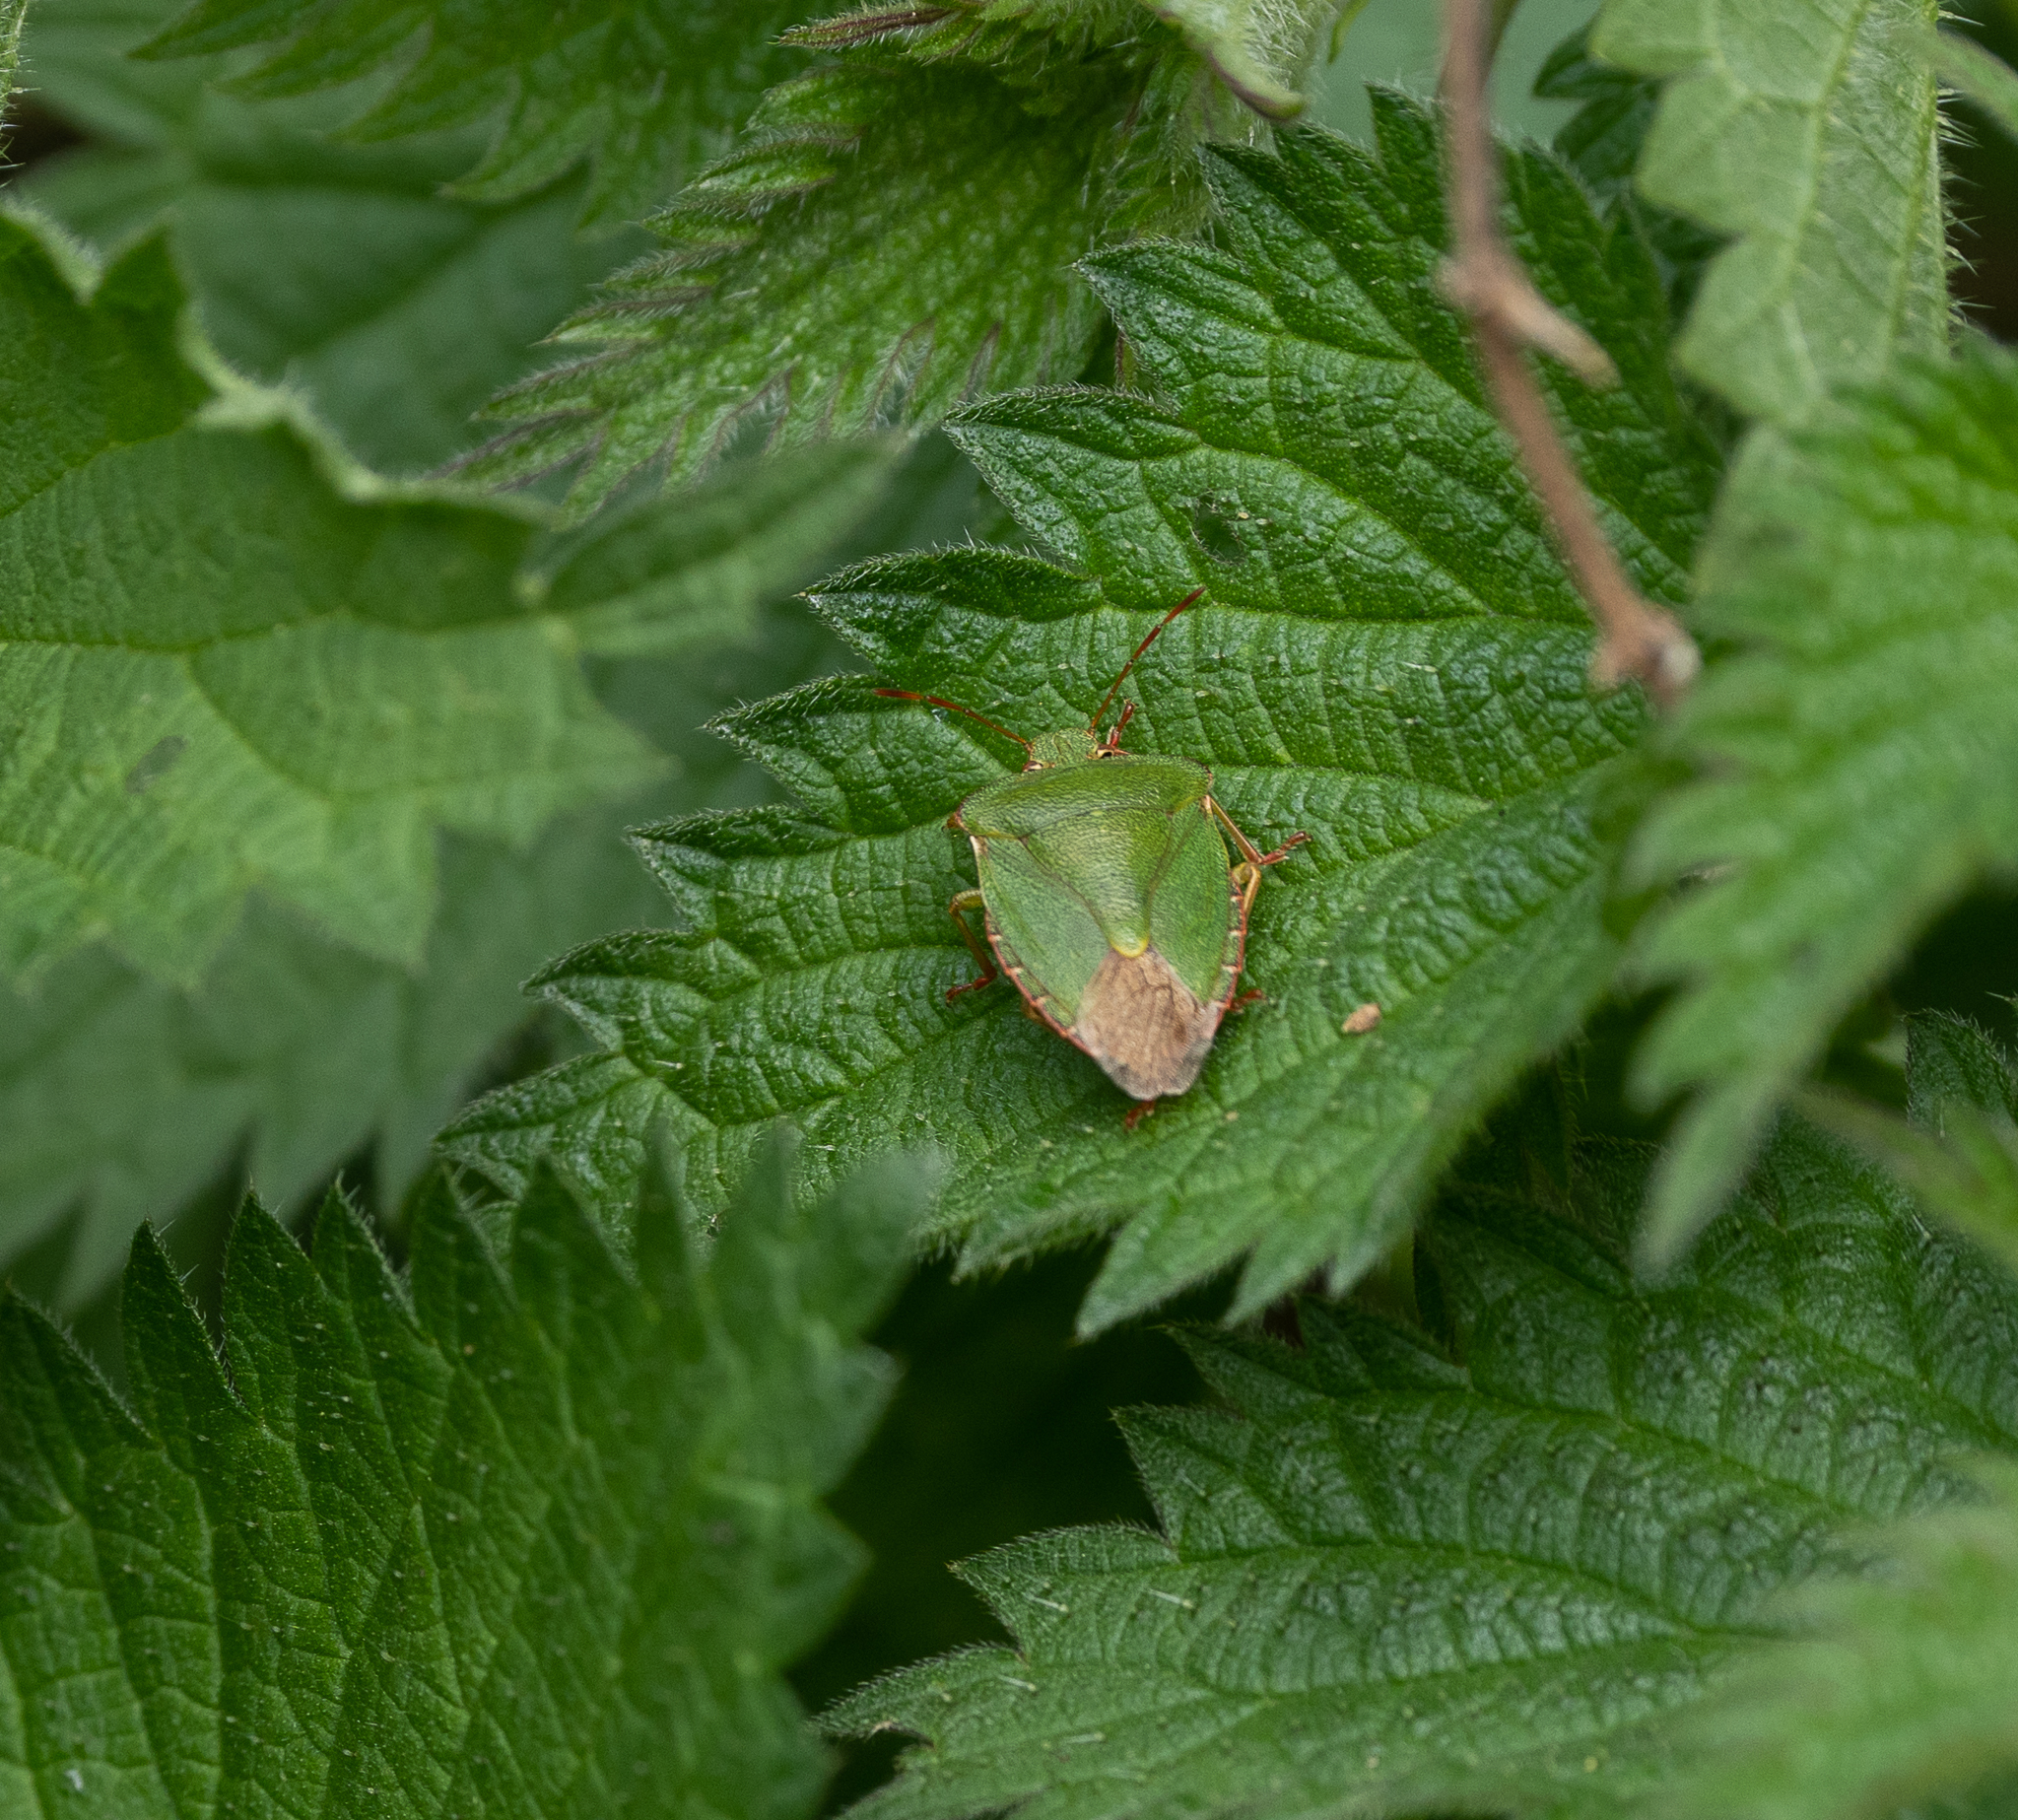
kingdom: Animalia
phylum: Arthropoda
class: Insecta
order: Hemiptera
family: Pentatomidae
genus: Palomena
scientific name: Palomena prasina
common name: Green shieldbug
